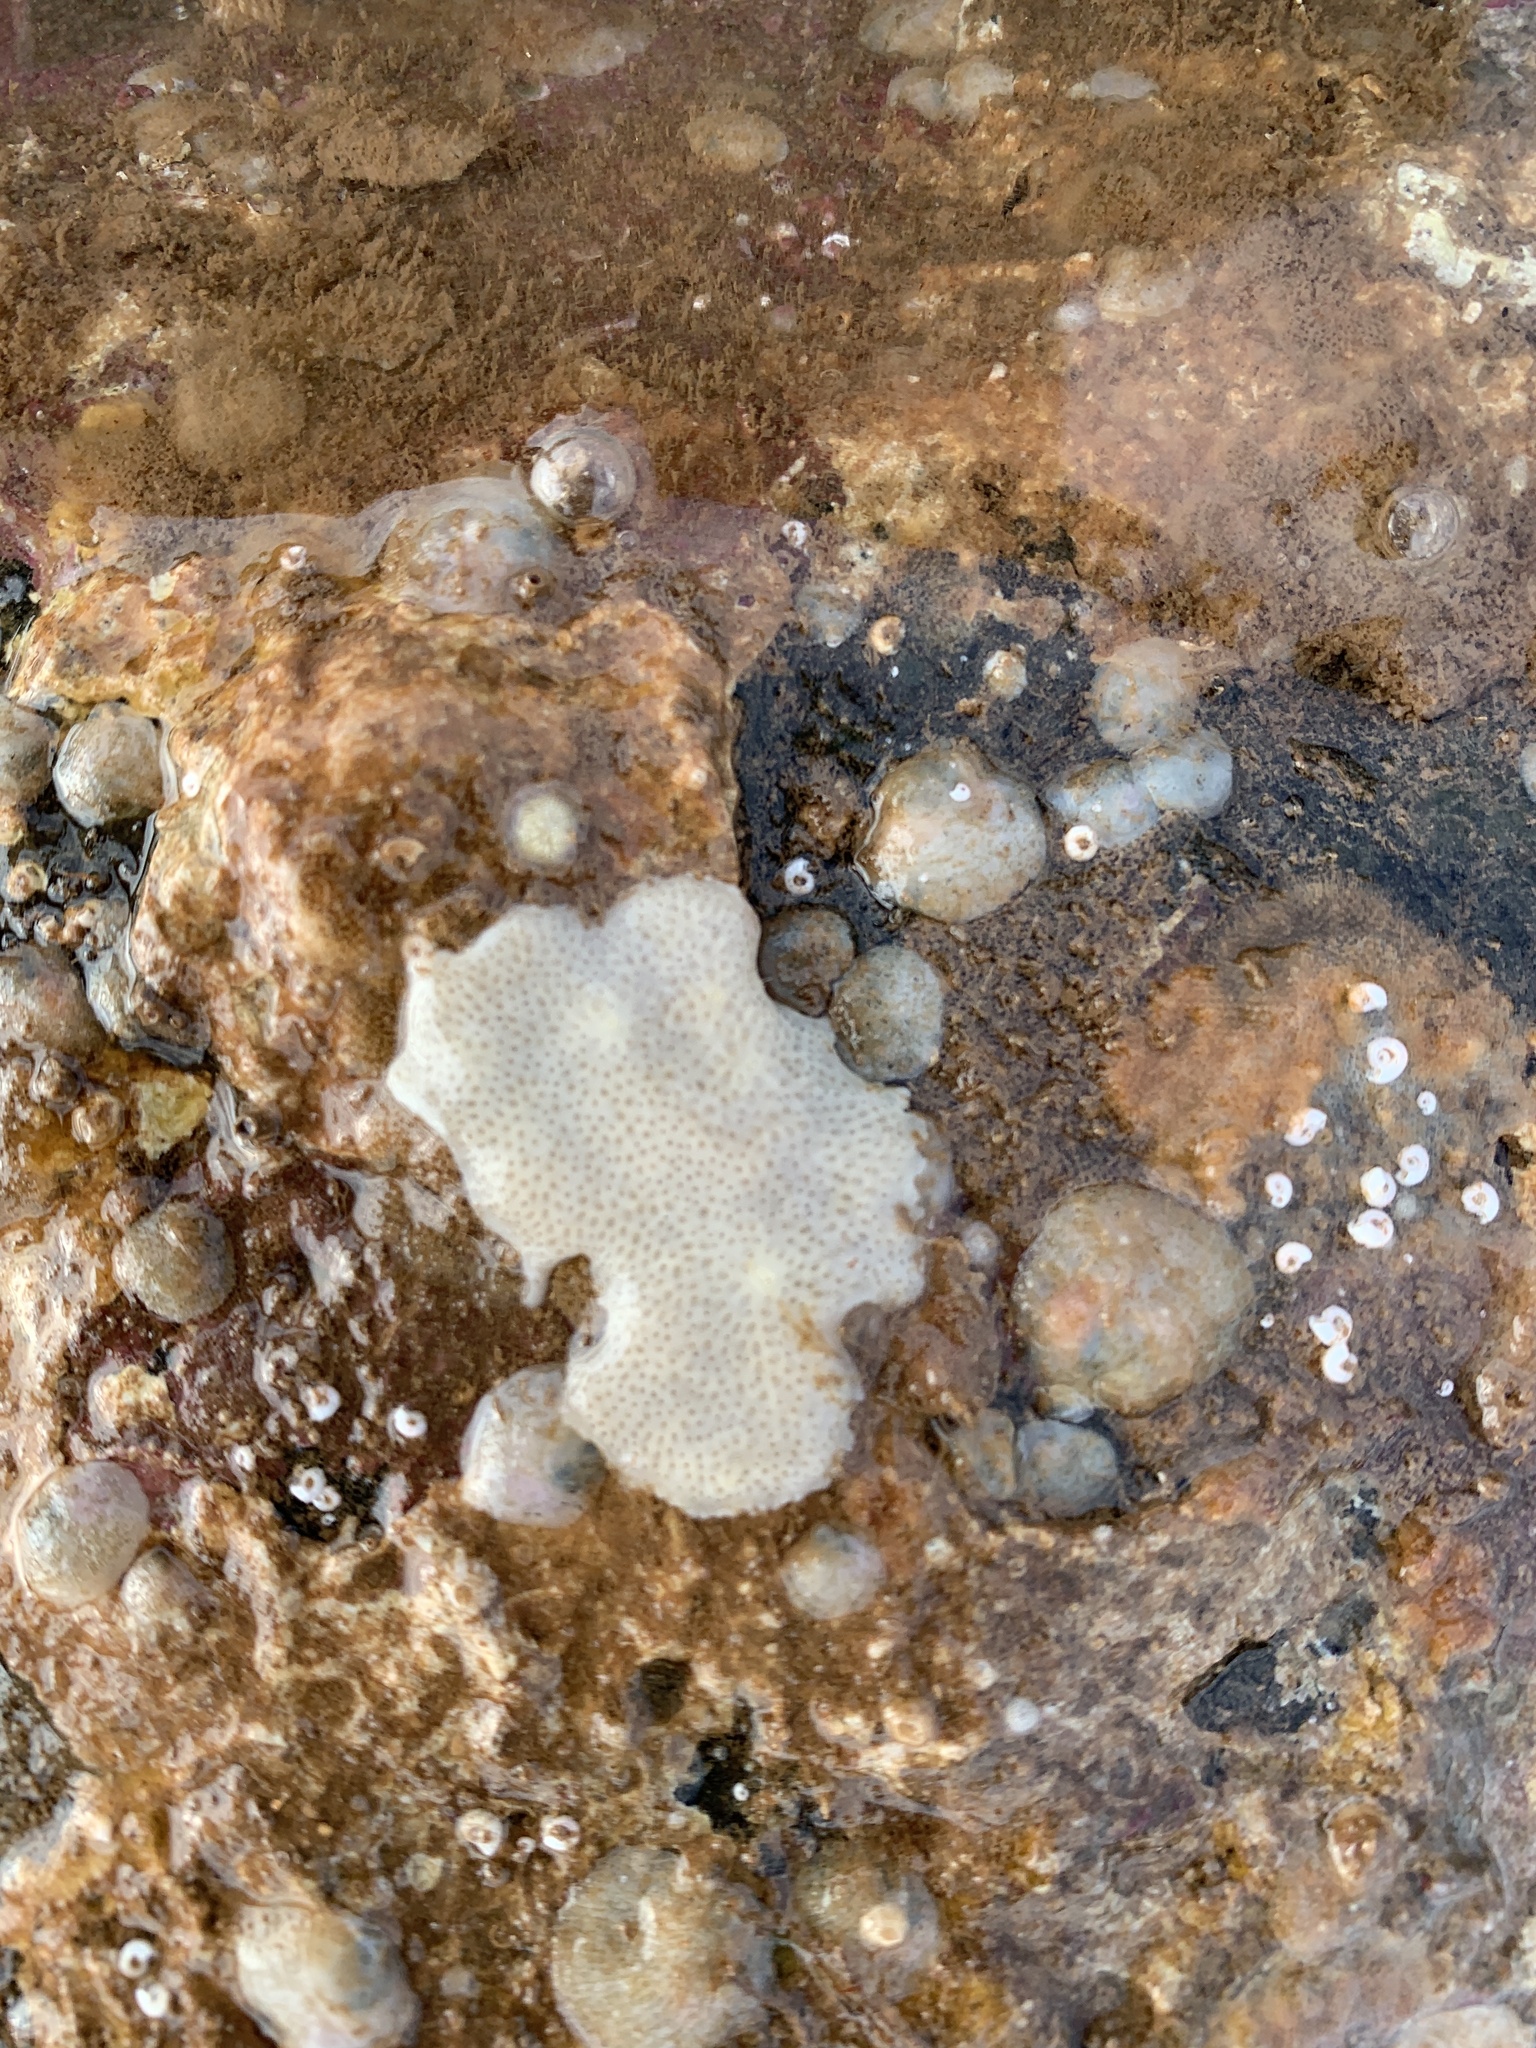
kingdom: Animalia
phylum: Chordata
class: Ascidiacea
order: Aplousobranchia
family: Didemnidae
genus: Didemnum
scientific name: Didemnum albidum
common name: Northern white crust
